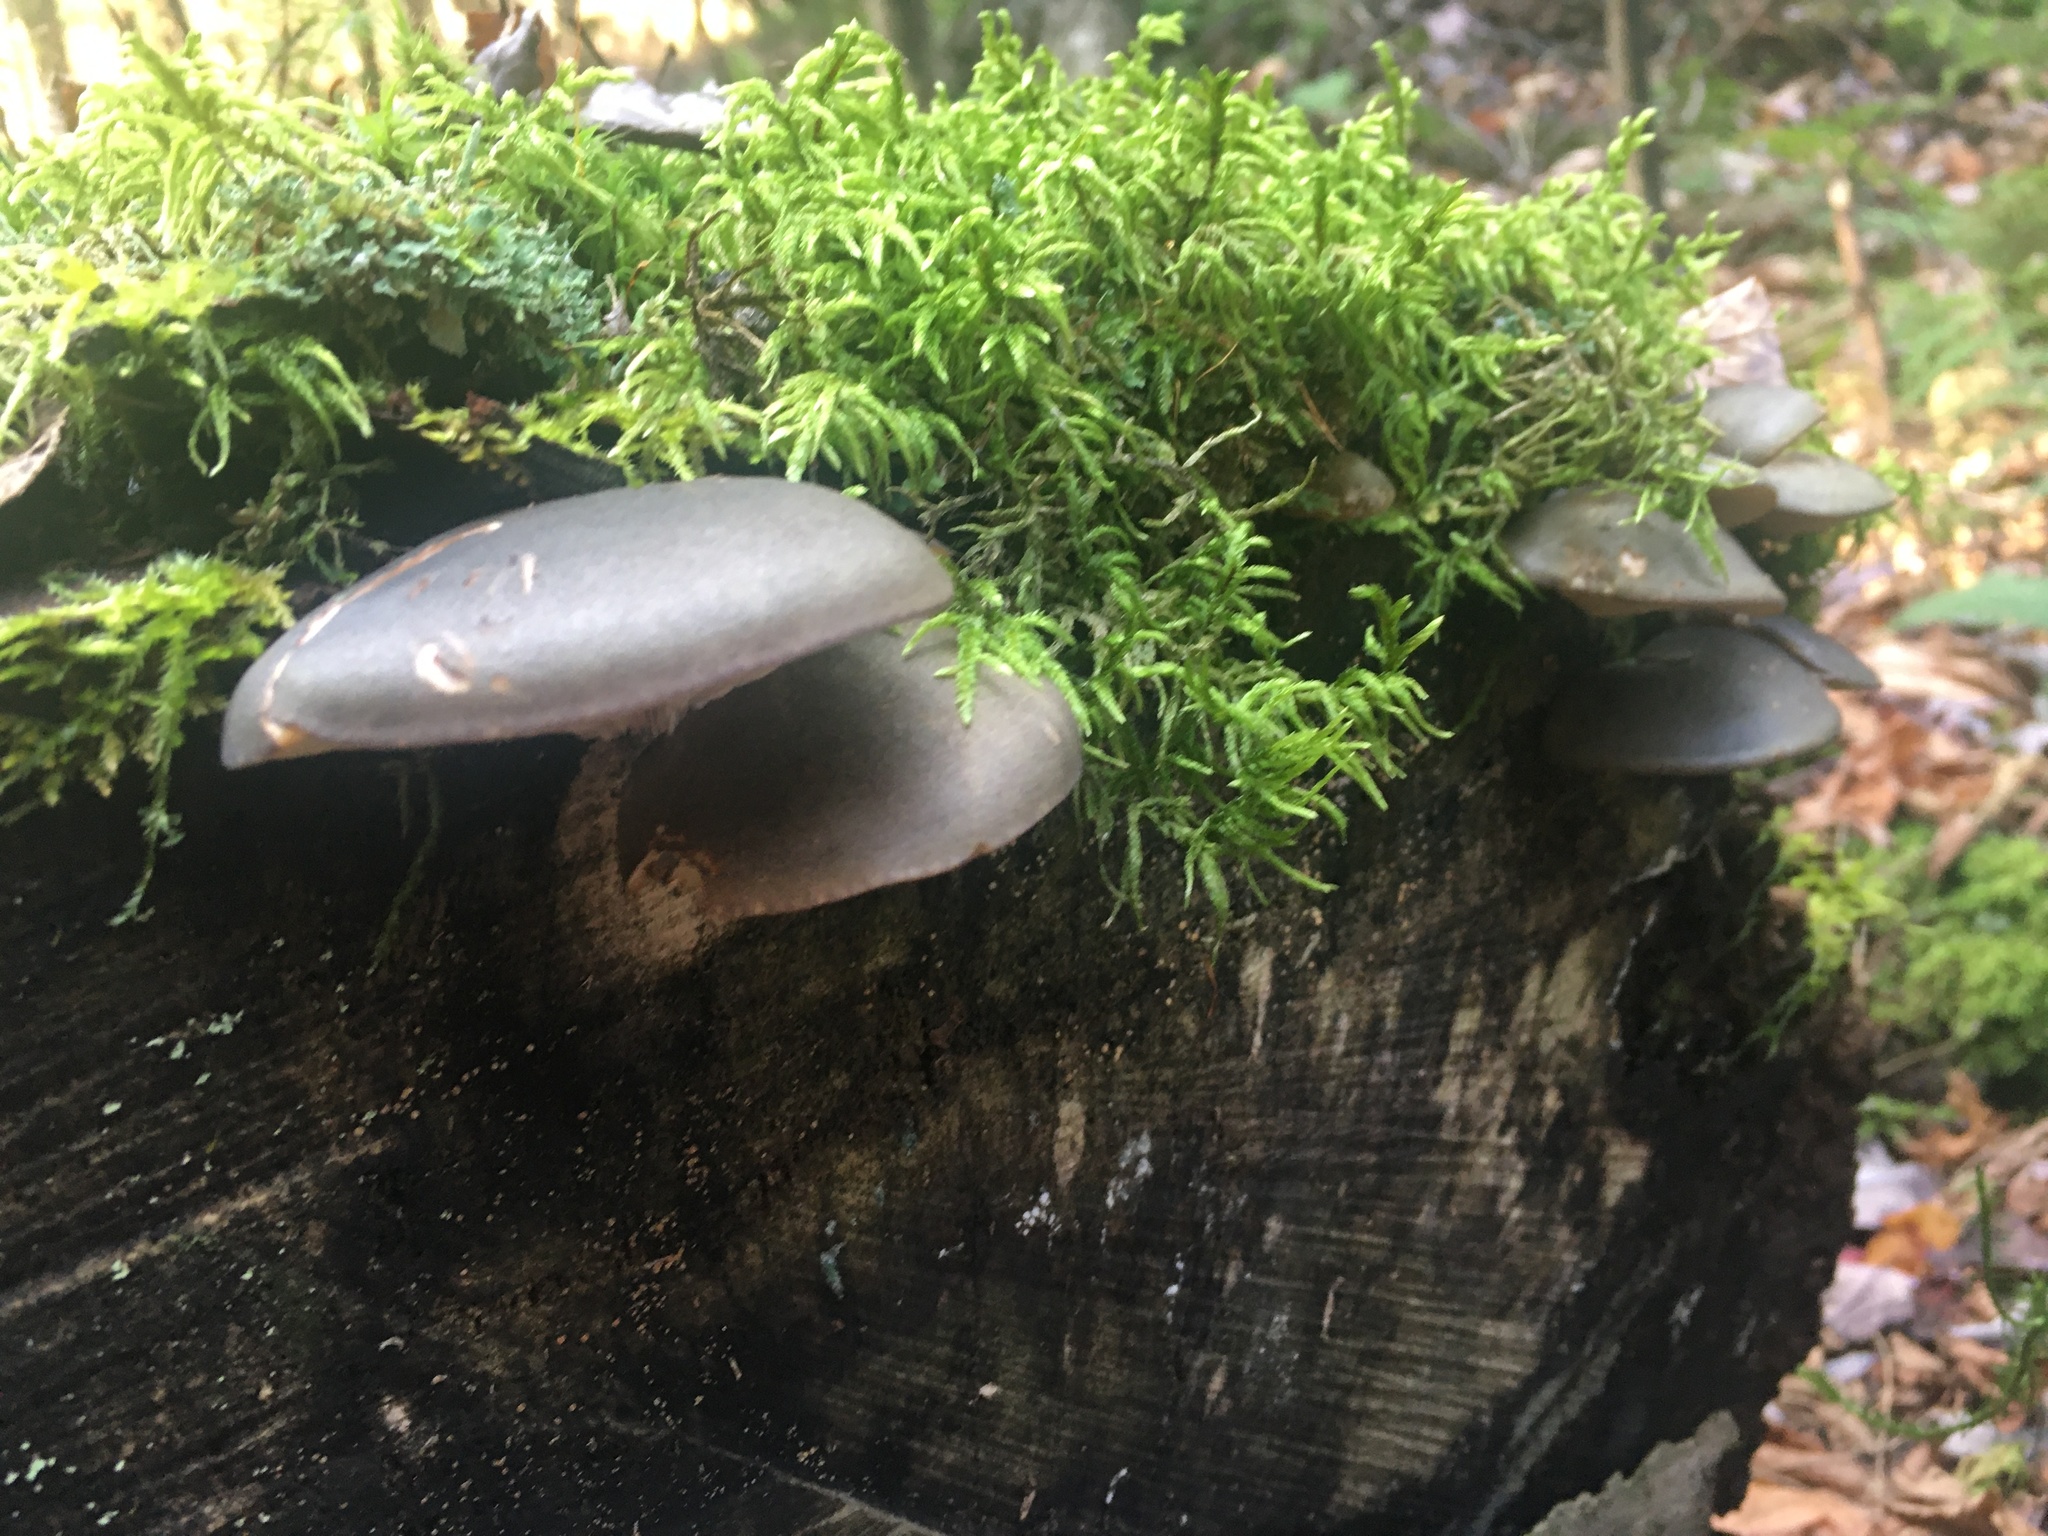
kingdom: Fungi
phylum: Basidiomycota
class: Agaricomycetes
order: Agaricales
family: Sarcomyxaceae
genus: Sarcomyxa
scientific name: Sarcomyxa serotina
